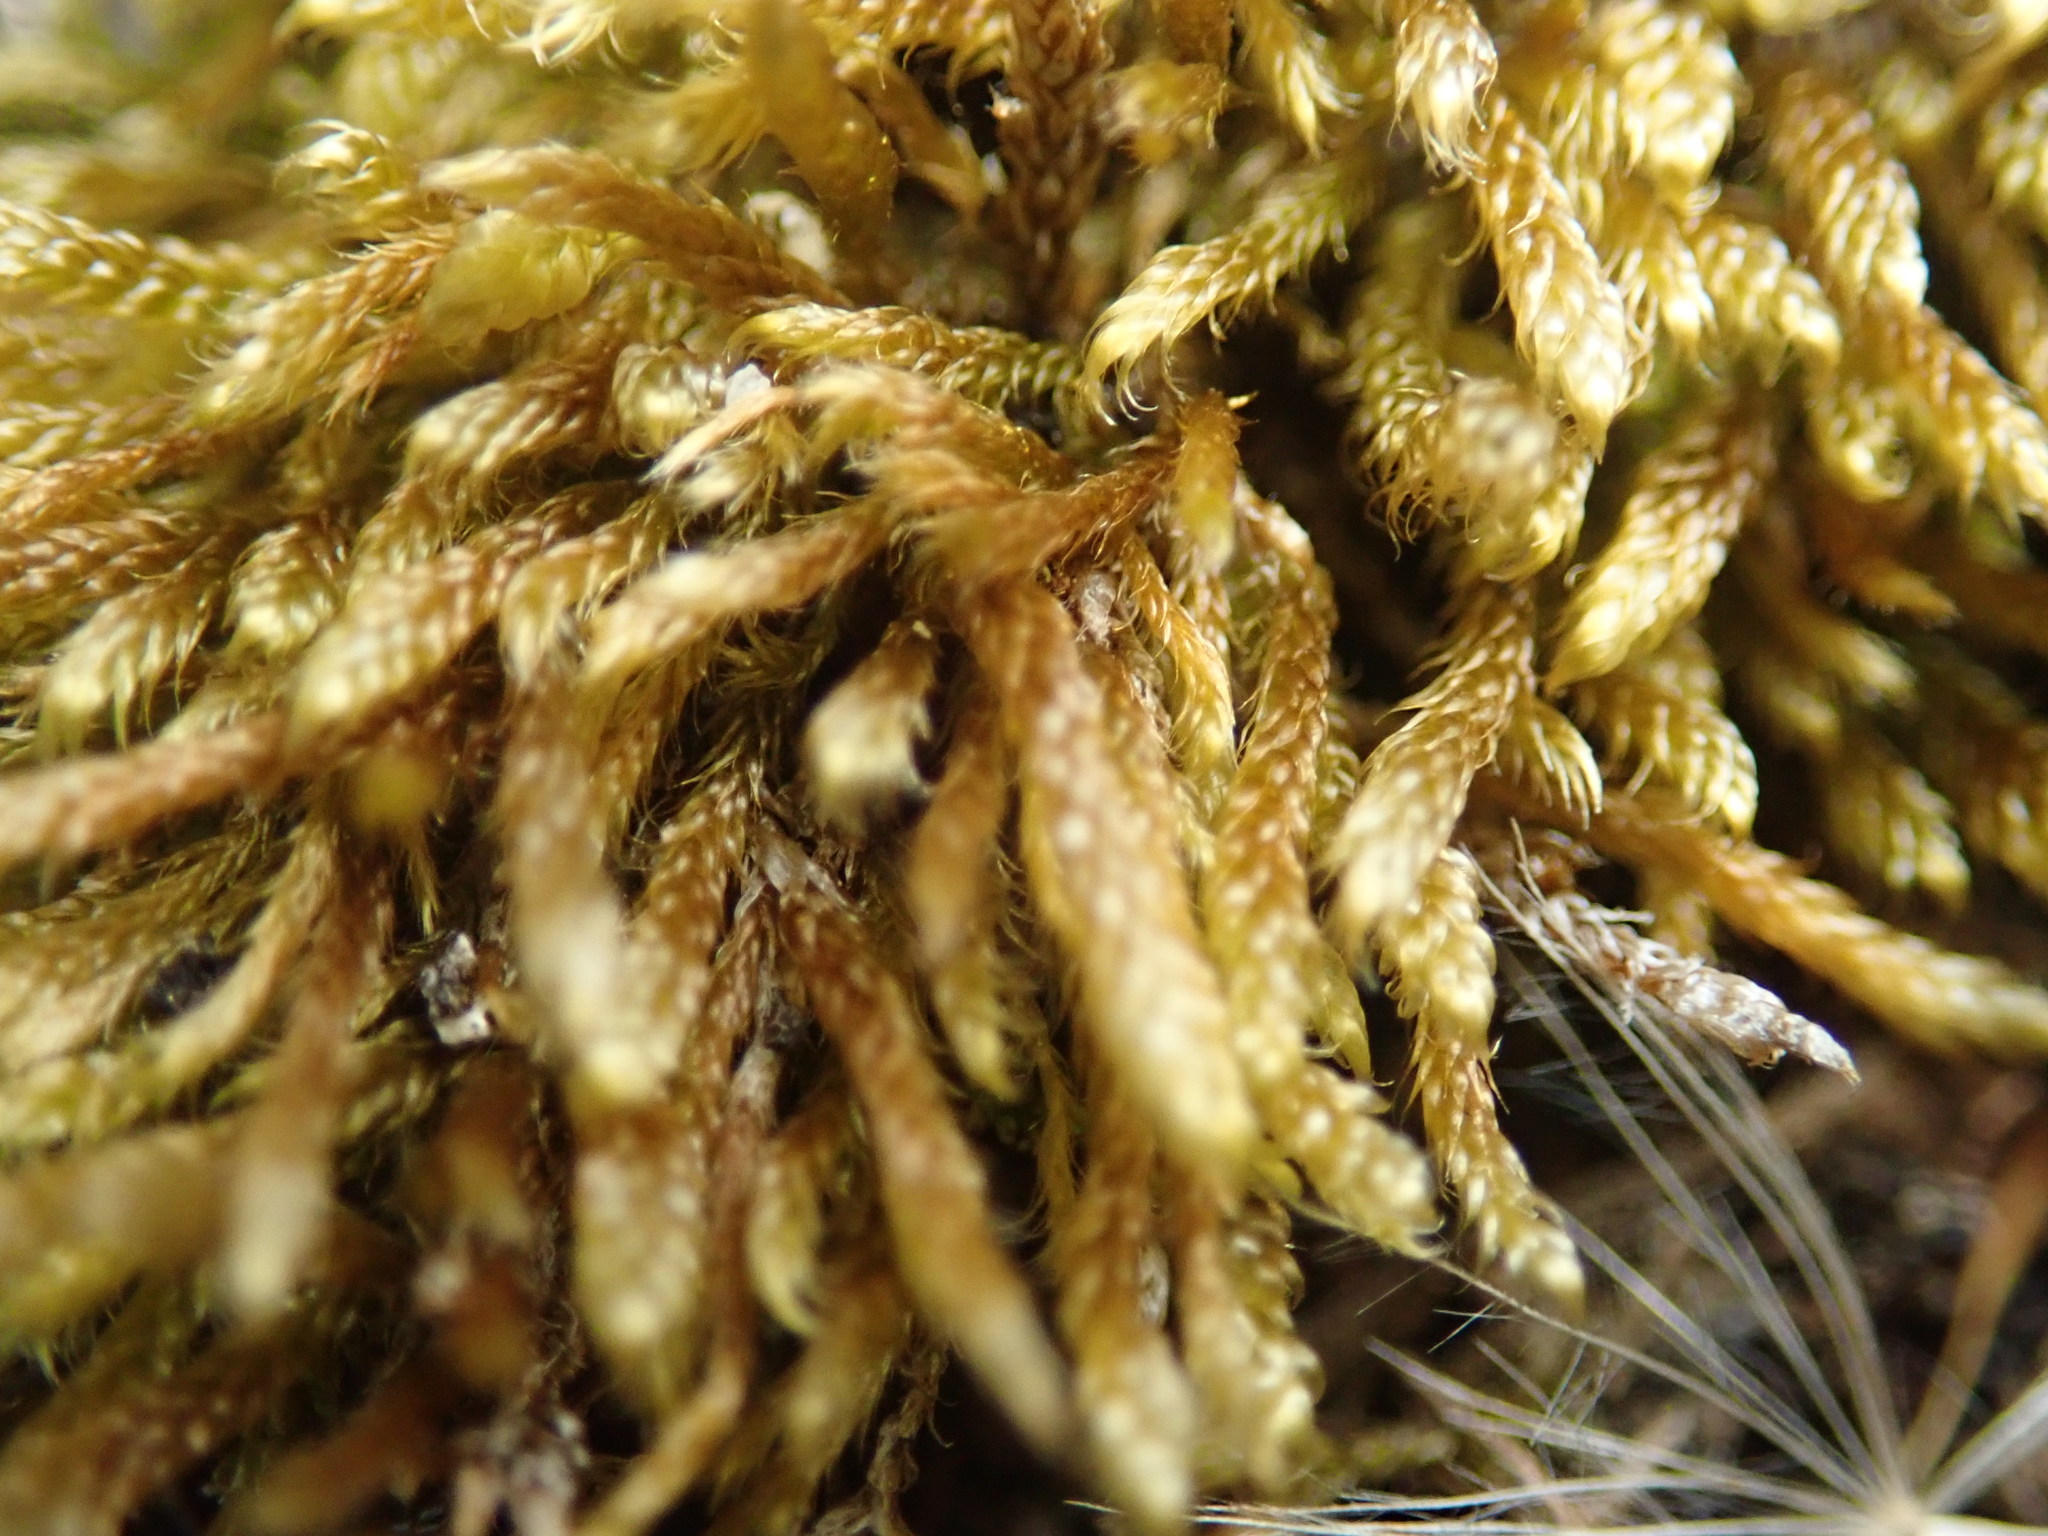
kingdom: Plantae
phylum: Bryophyta
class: Bryopsida
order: Hypnales
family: Hypnaceae
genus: Hypnum
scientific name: Hypnum cupressiforme
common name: Cypress-leaved plait-moss
